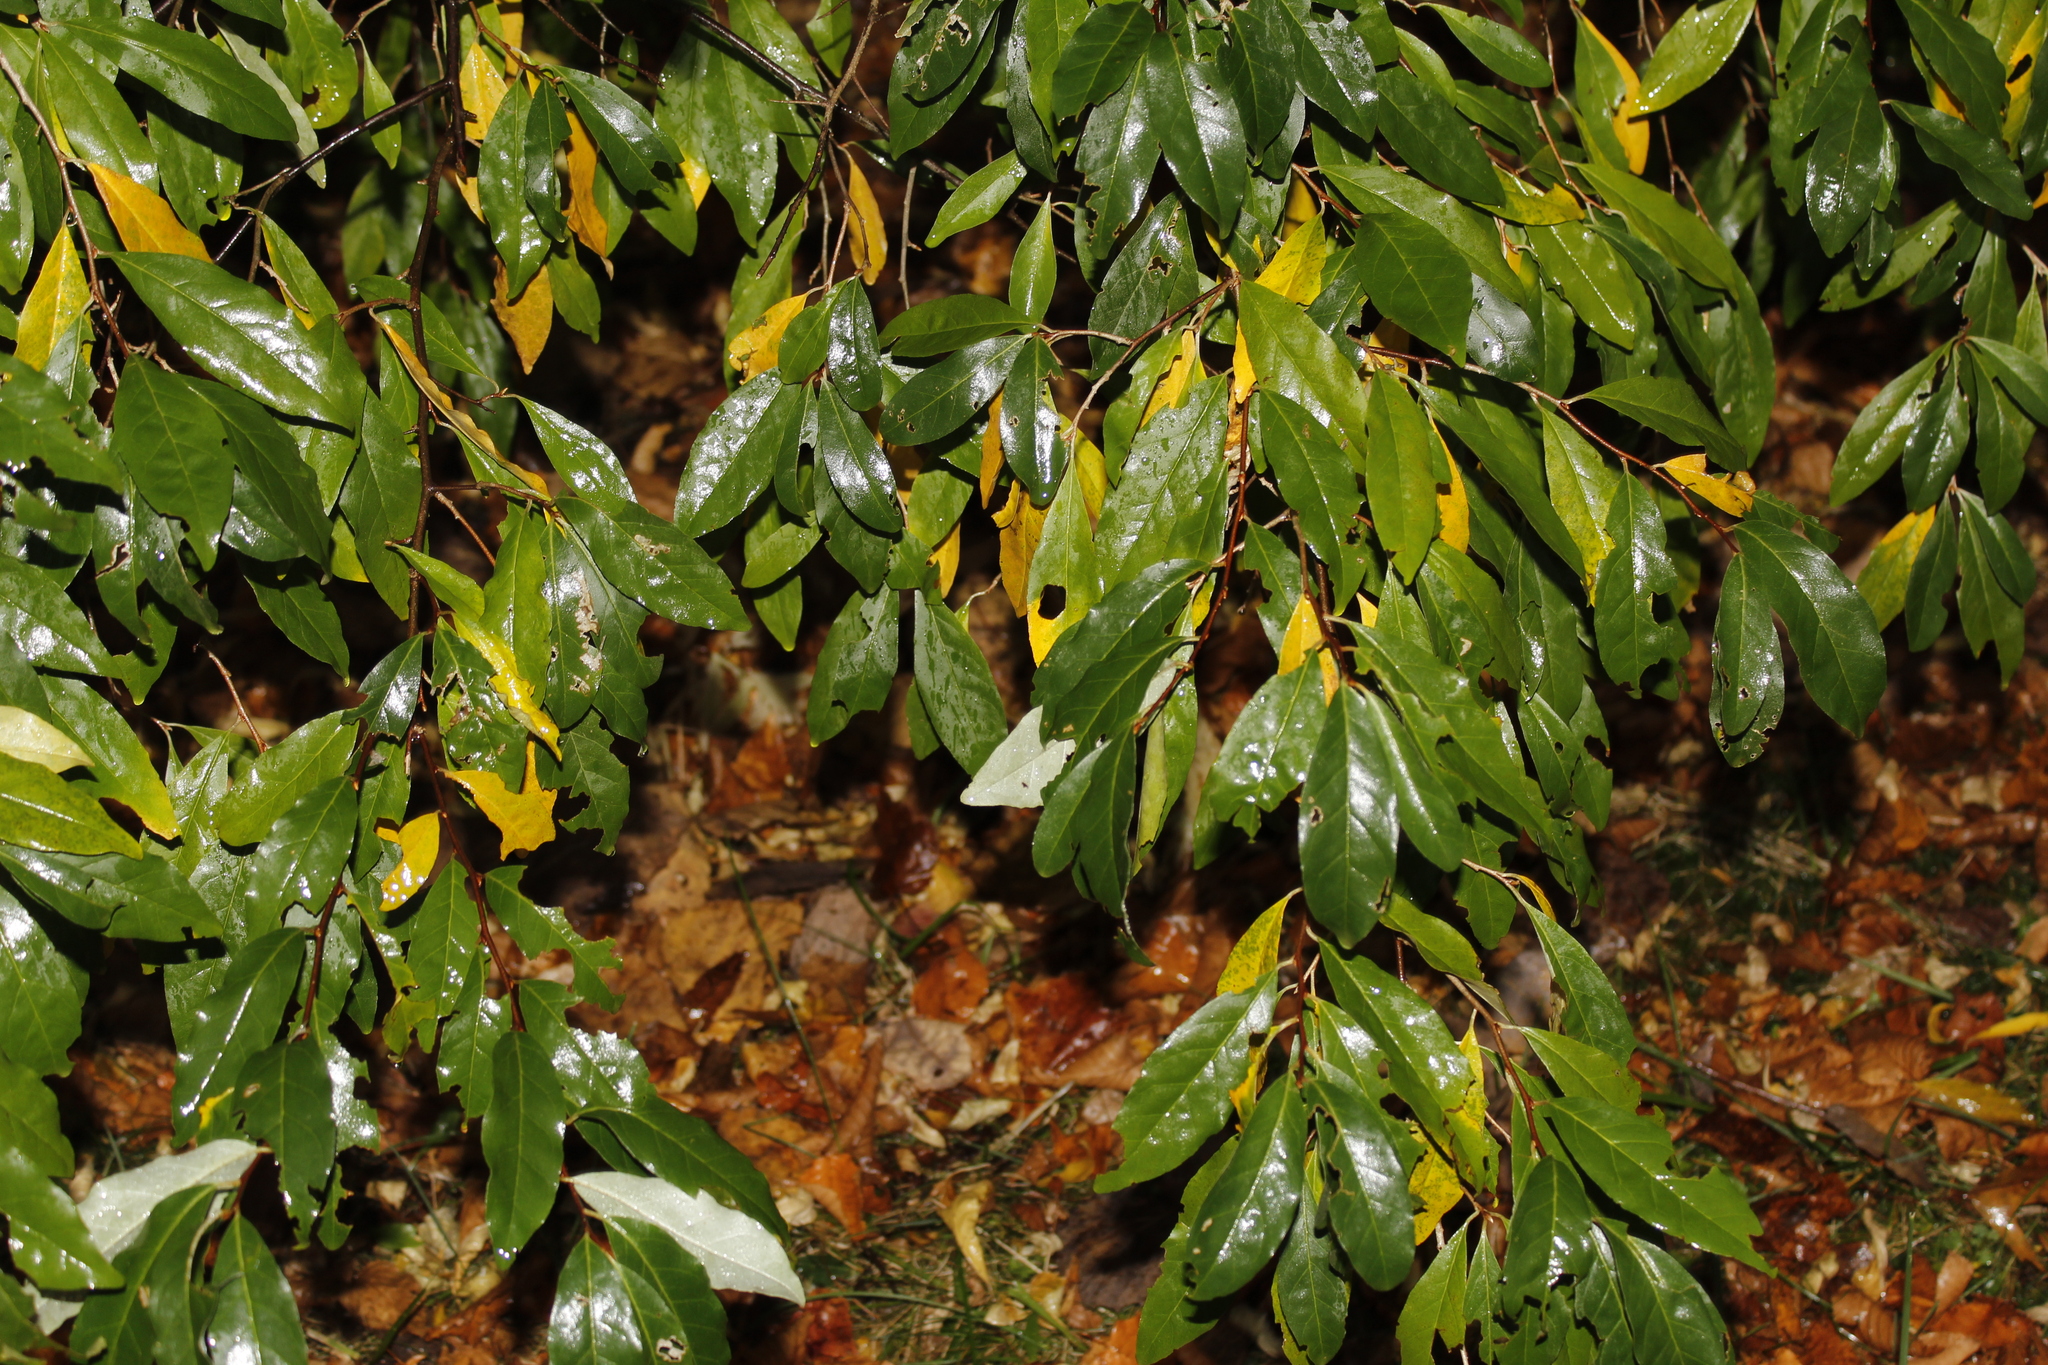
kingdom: Plantae
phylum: Tracheophyta
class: Magnoliopsida
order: Rosales
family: Elaeagnaceae
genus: Elaeagnus
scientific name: Elaeagnus umbellata
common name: Autumn olive
